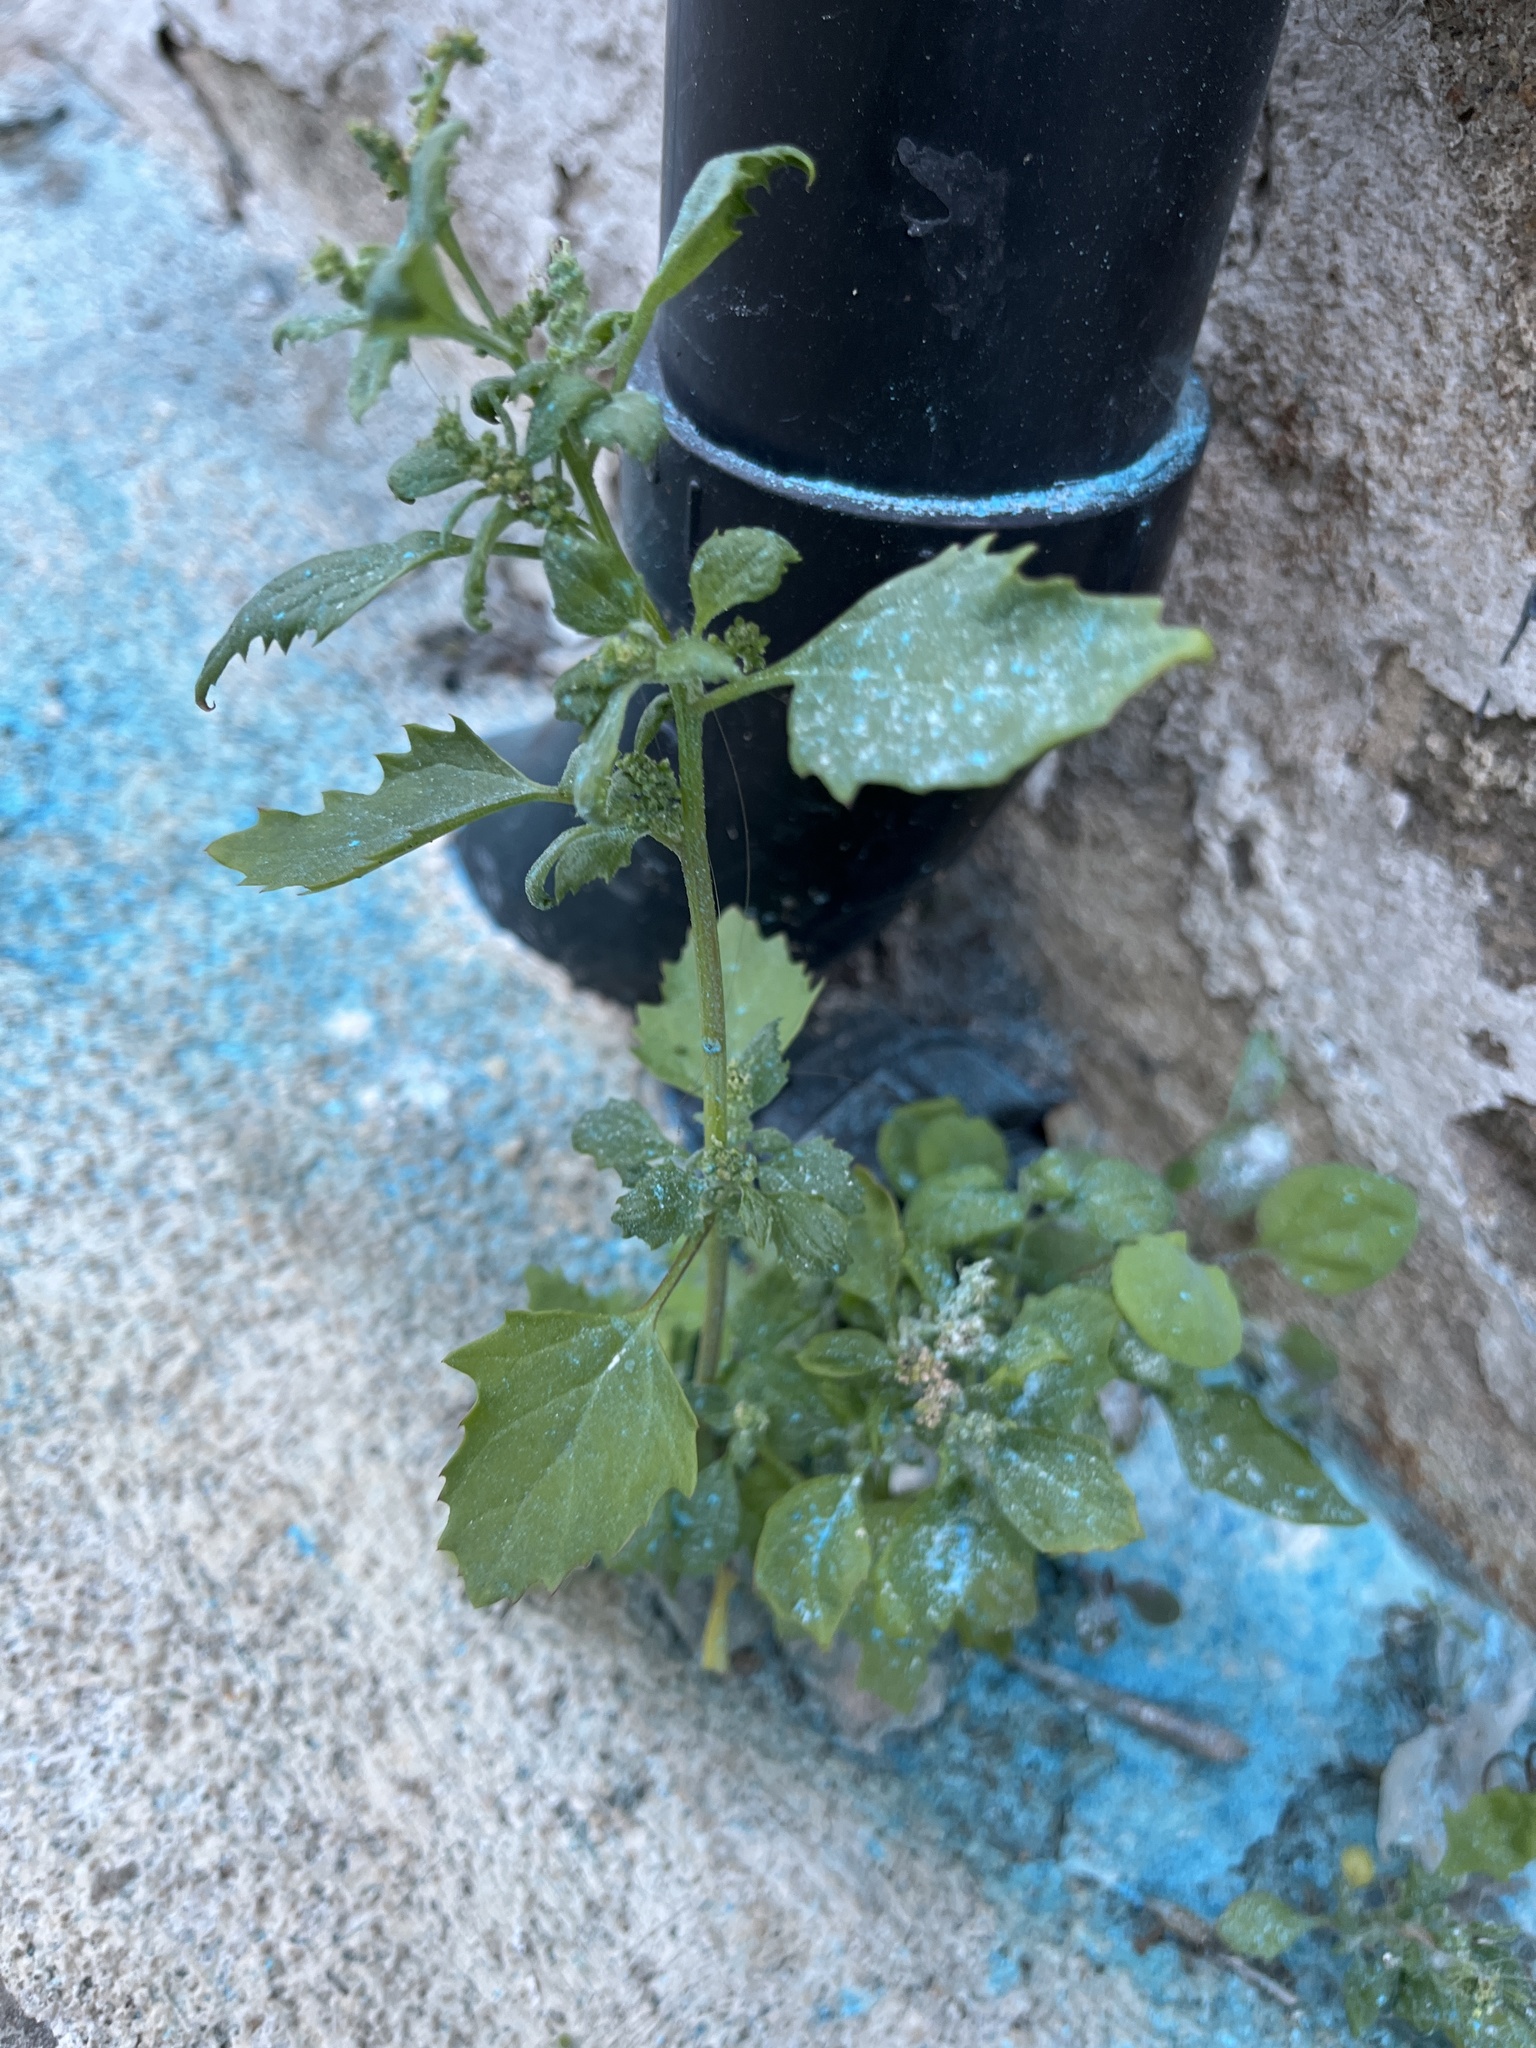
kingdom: Plantae
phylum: Tracheophyta
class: Magnoliopsida
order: Caryophyllales
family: Amaranthaceae
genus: Chenopodiastrum
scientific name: Chenopodiastrum murale
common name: Sowbane
